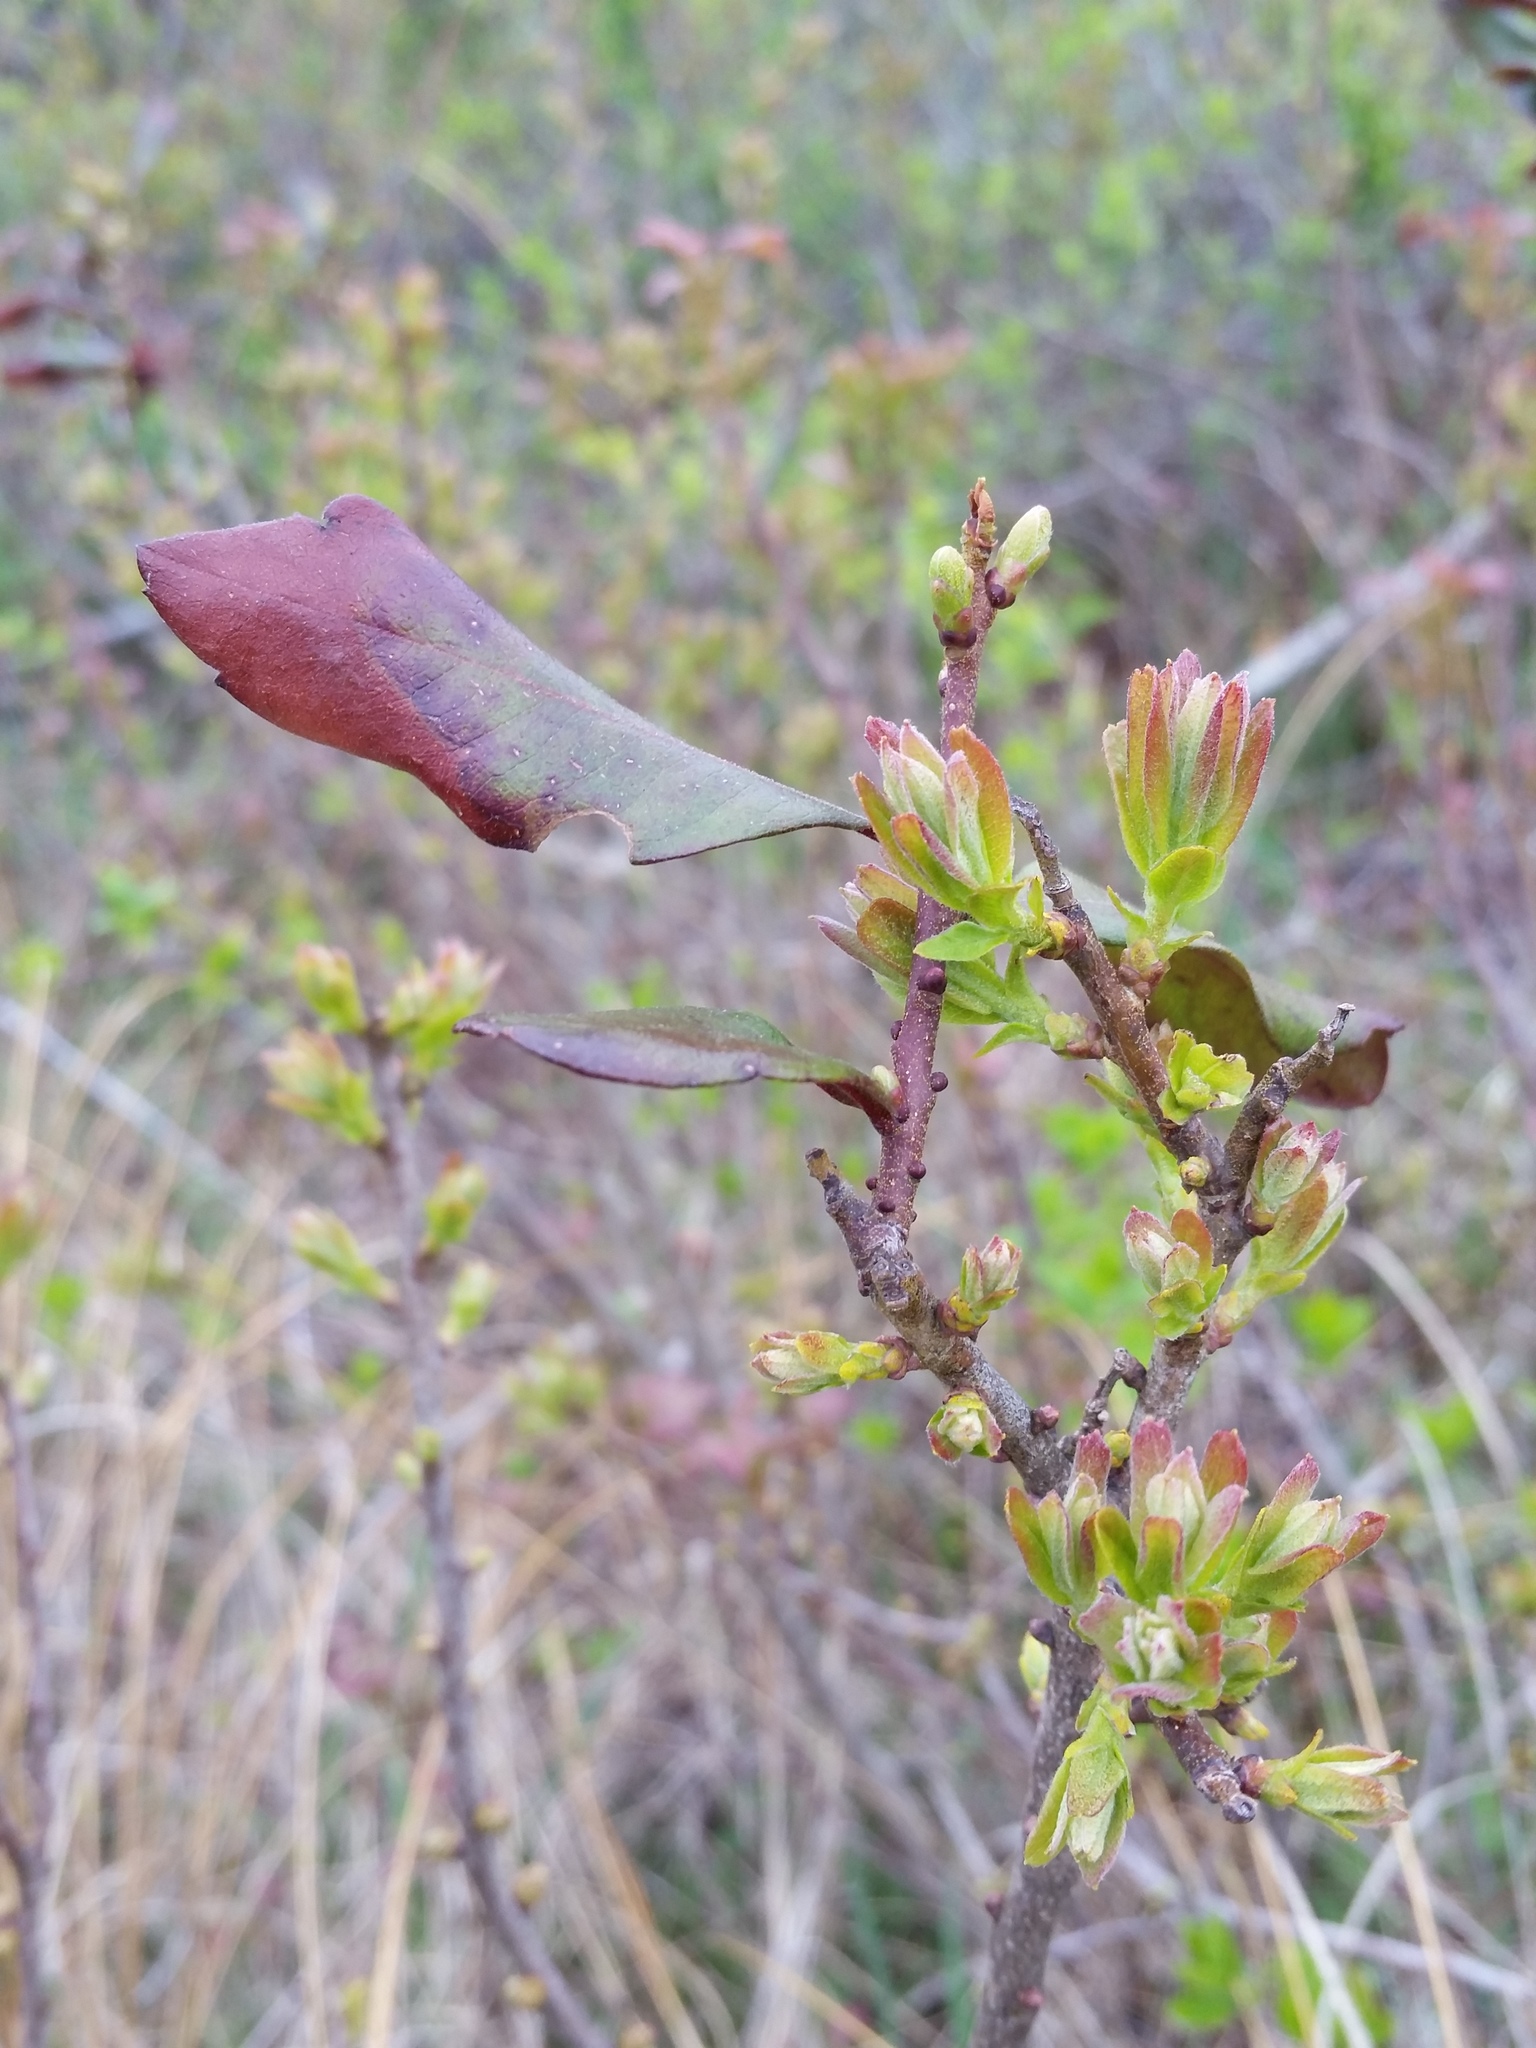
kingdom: Plantae
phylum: Tracheophyta
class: Magnoliopsida
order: Fagales
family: Myricaceae
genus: Morella
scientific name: Morella pensylvanica
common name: Northern bayberry
